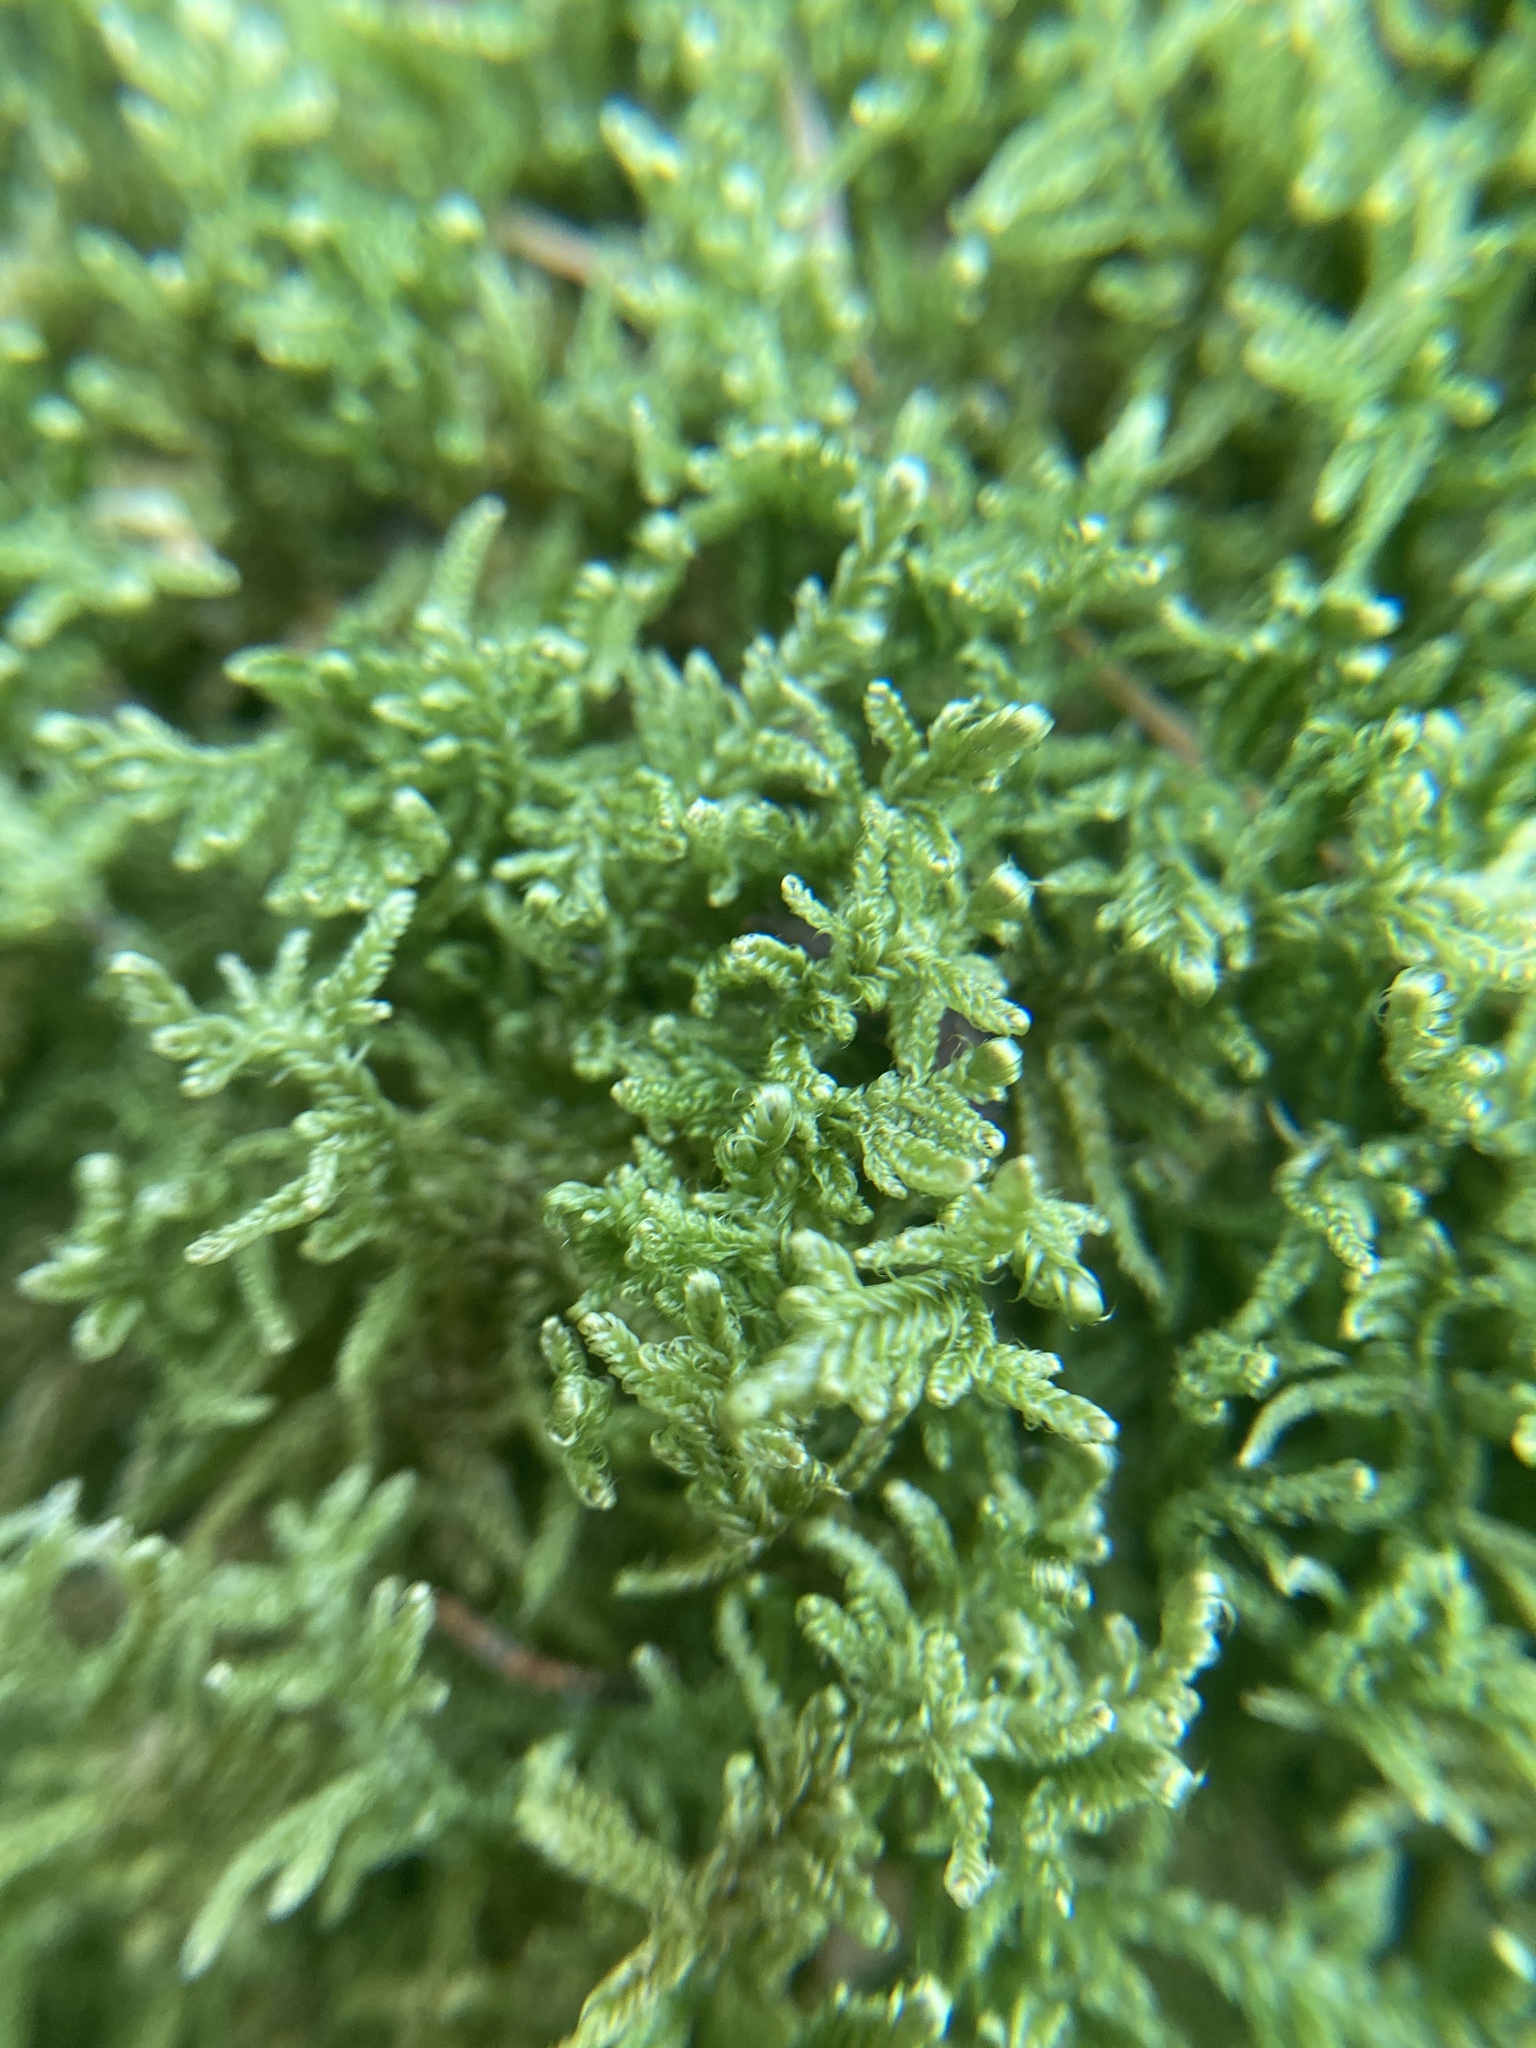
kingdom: Plantae
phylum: Bryophyta
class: Bryopsida
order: Hypnales
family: Callicladiaceae
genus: Callicladium
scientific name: Callicladium imponens
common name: Brocade moss
